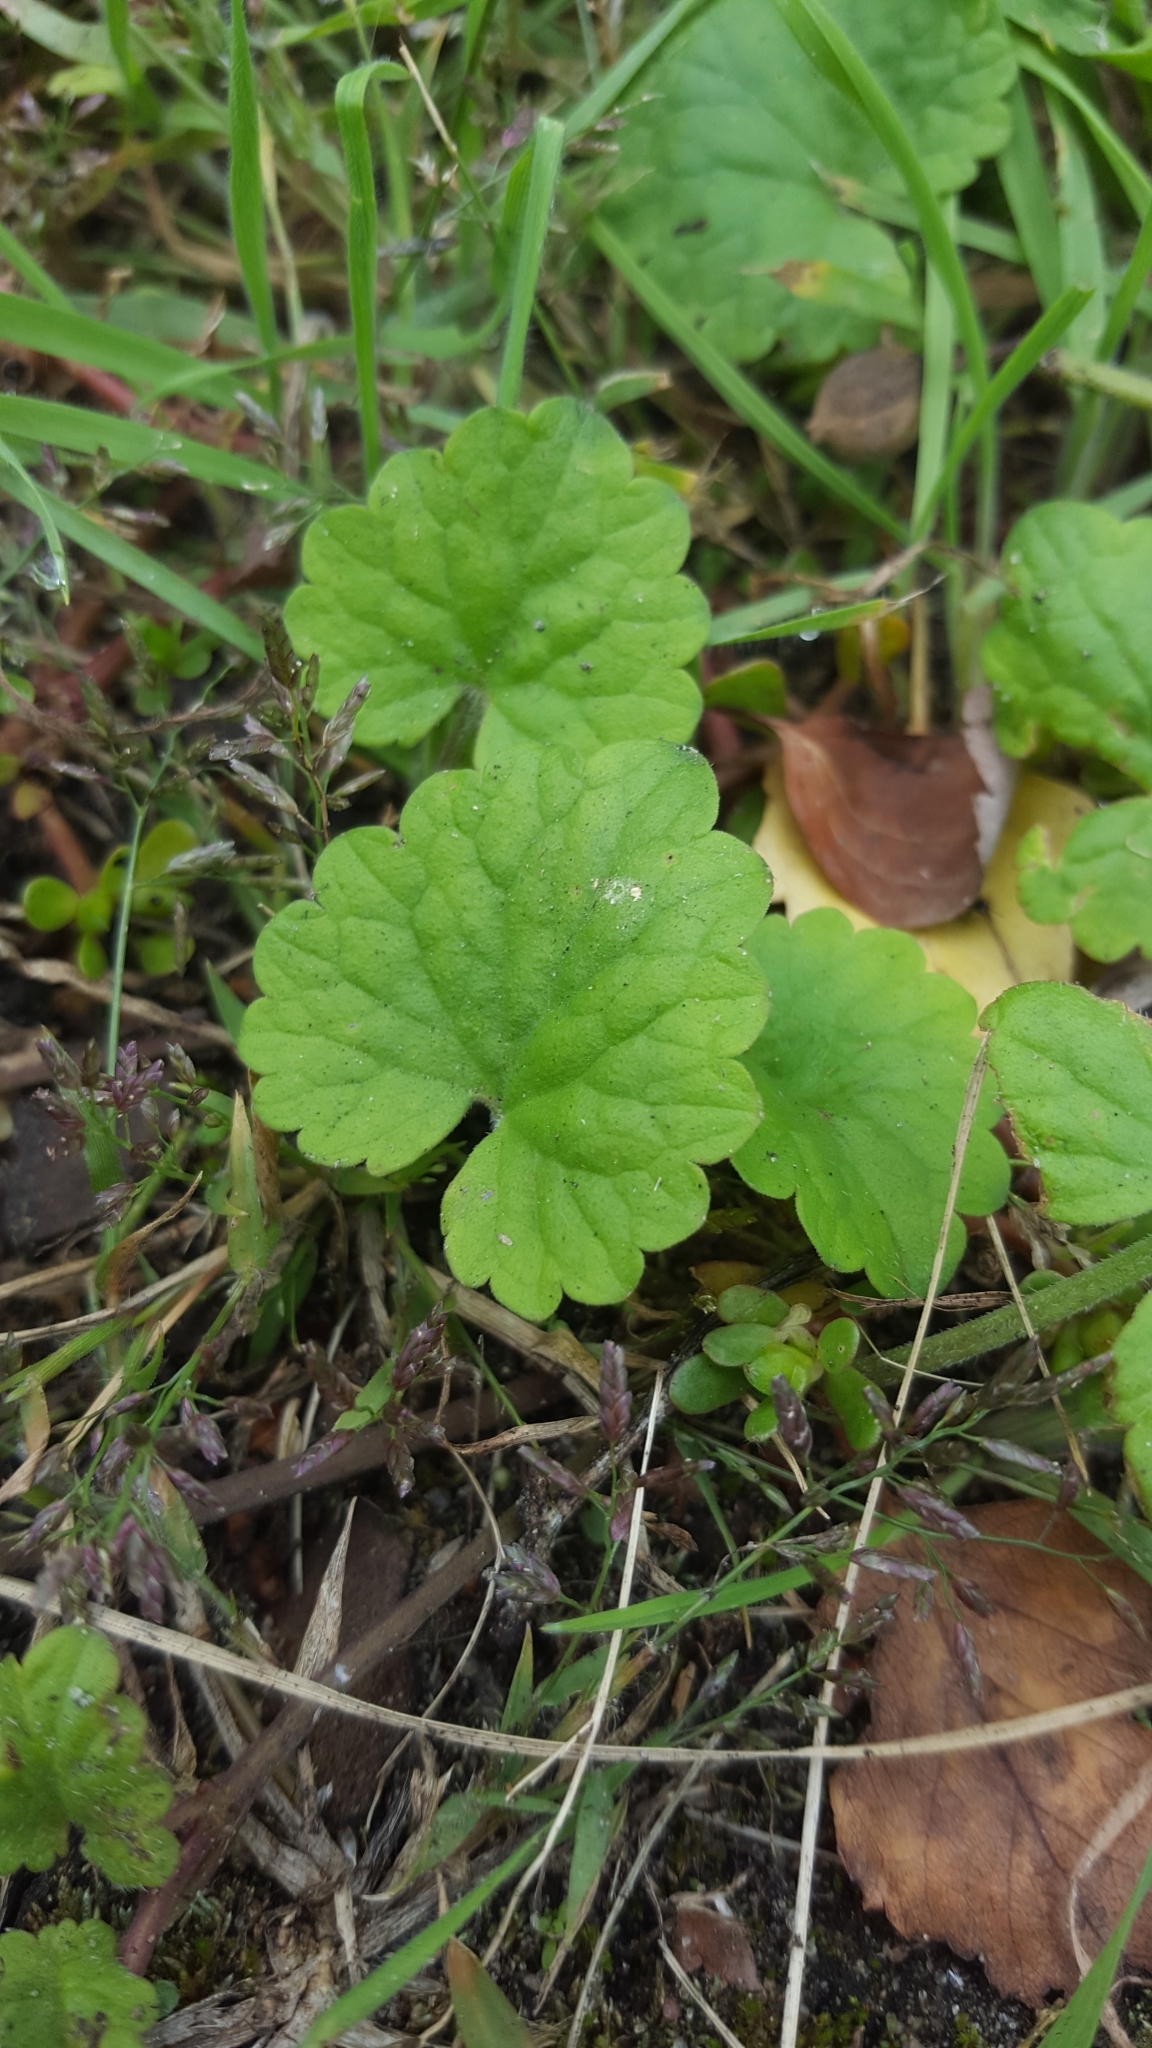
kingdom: Plantae
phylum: Tracheophyta
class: Magnoliopsida
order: Lamiales
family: Lamiaceae
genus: Glechoma
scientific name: Glechoma hederacea
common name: Ground ivy
